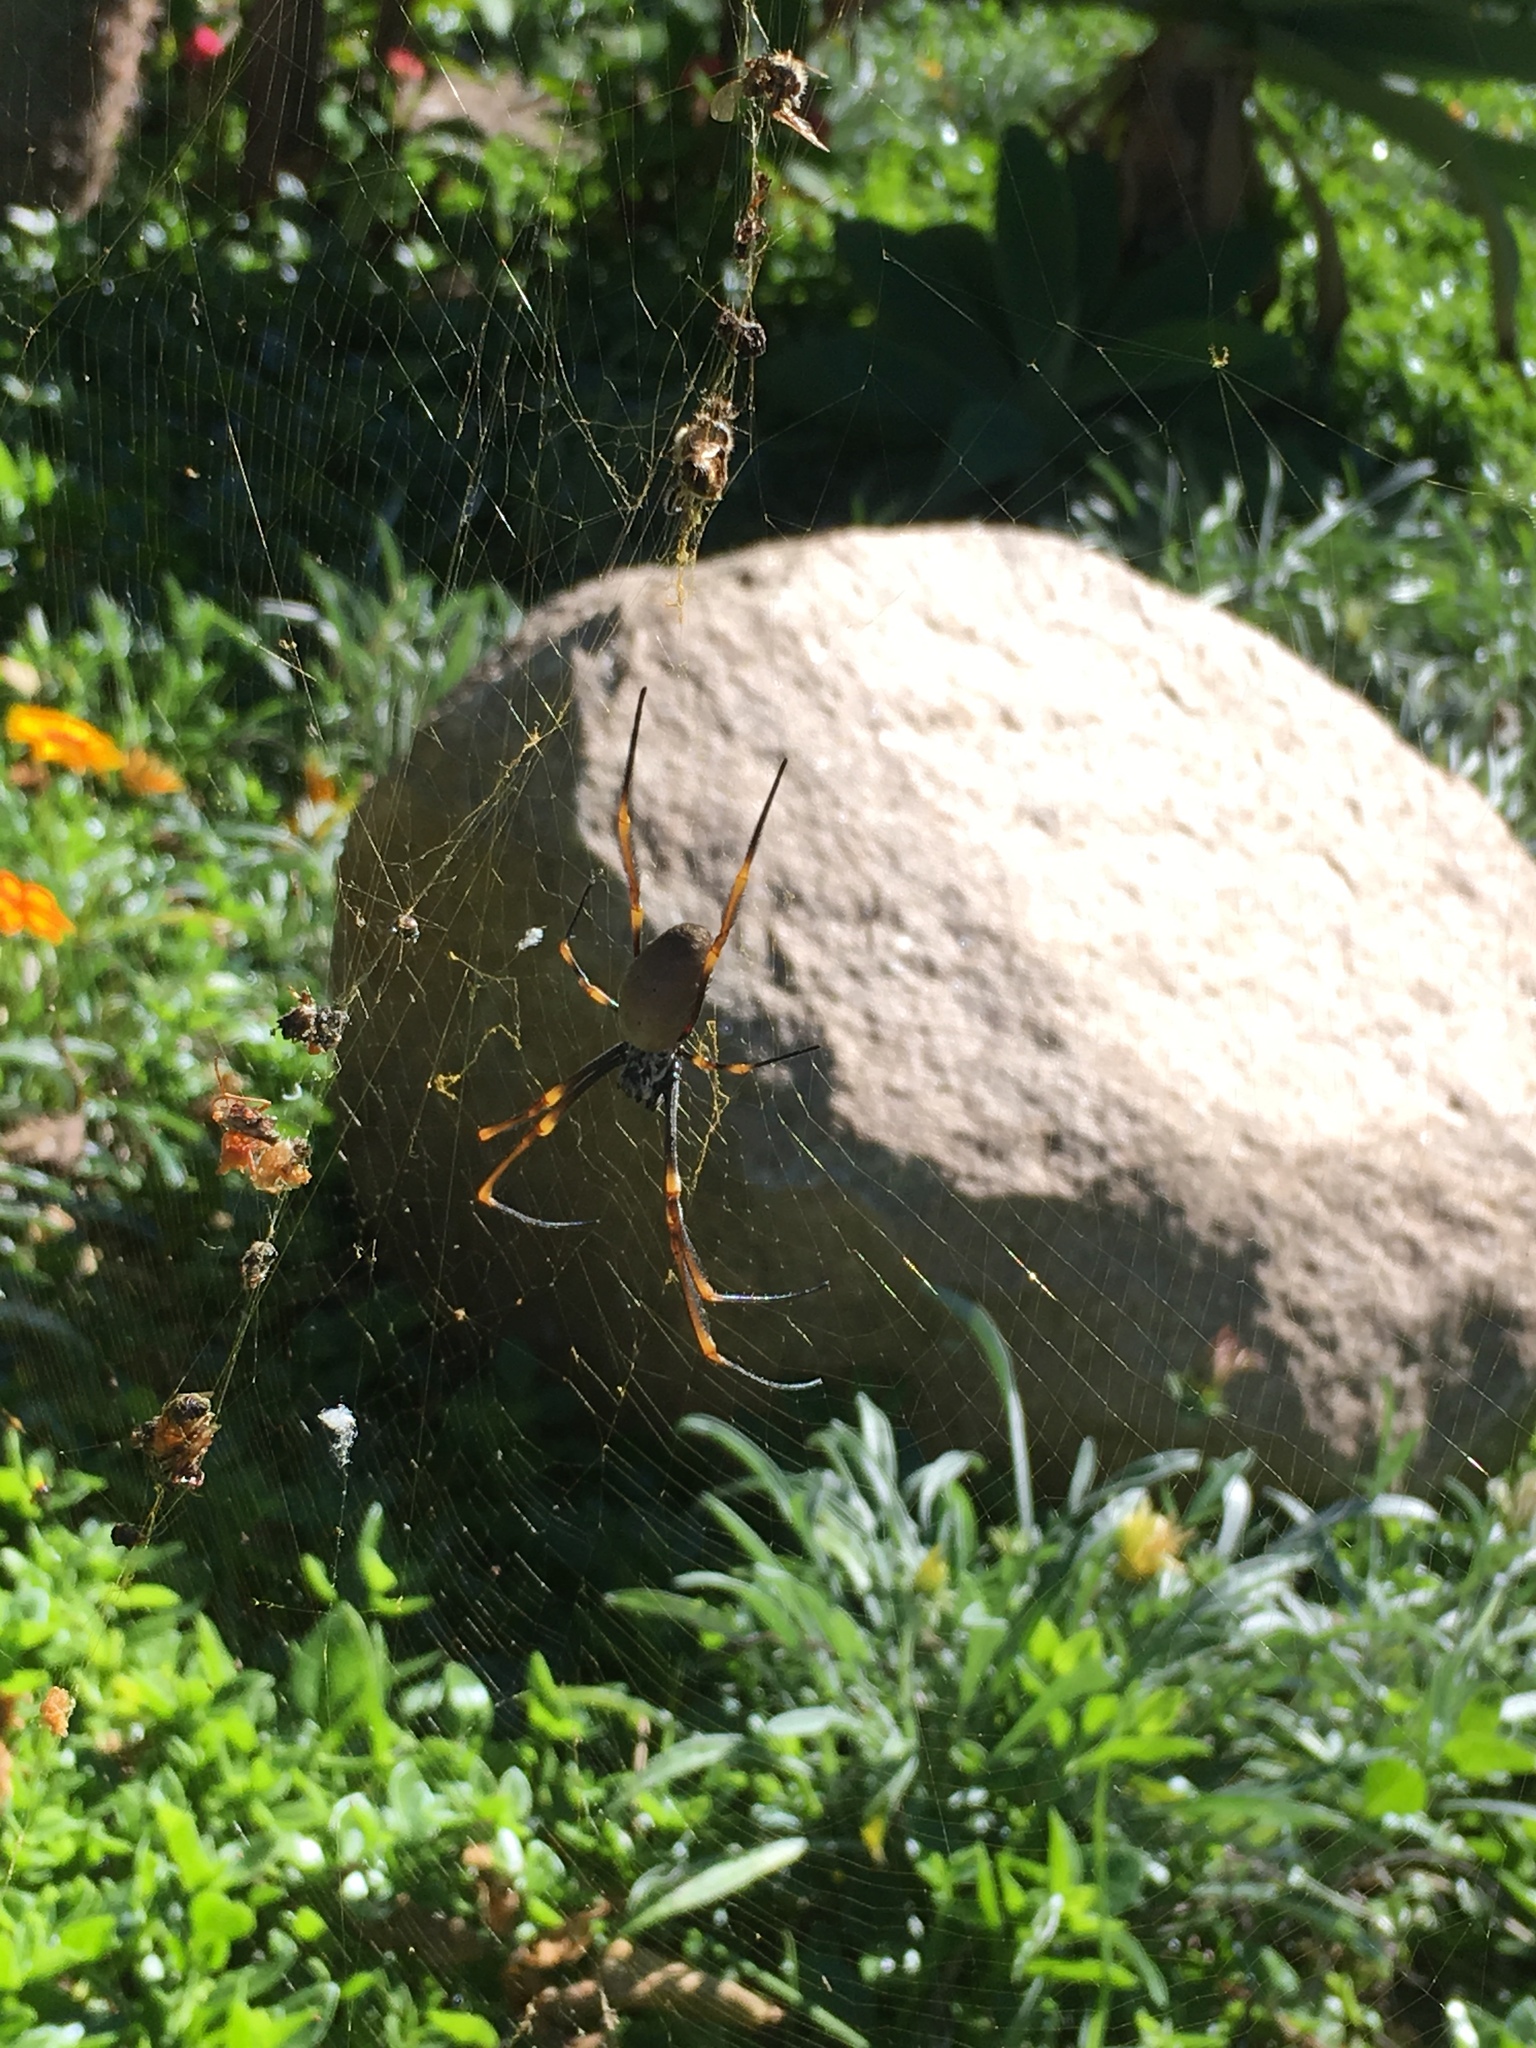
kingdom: Animalia
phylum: Arthropoda
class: Arachnida
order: Araneae
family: Araneidae
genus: Trichonephila
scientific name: Trichonephila plumipes
